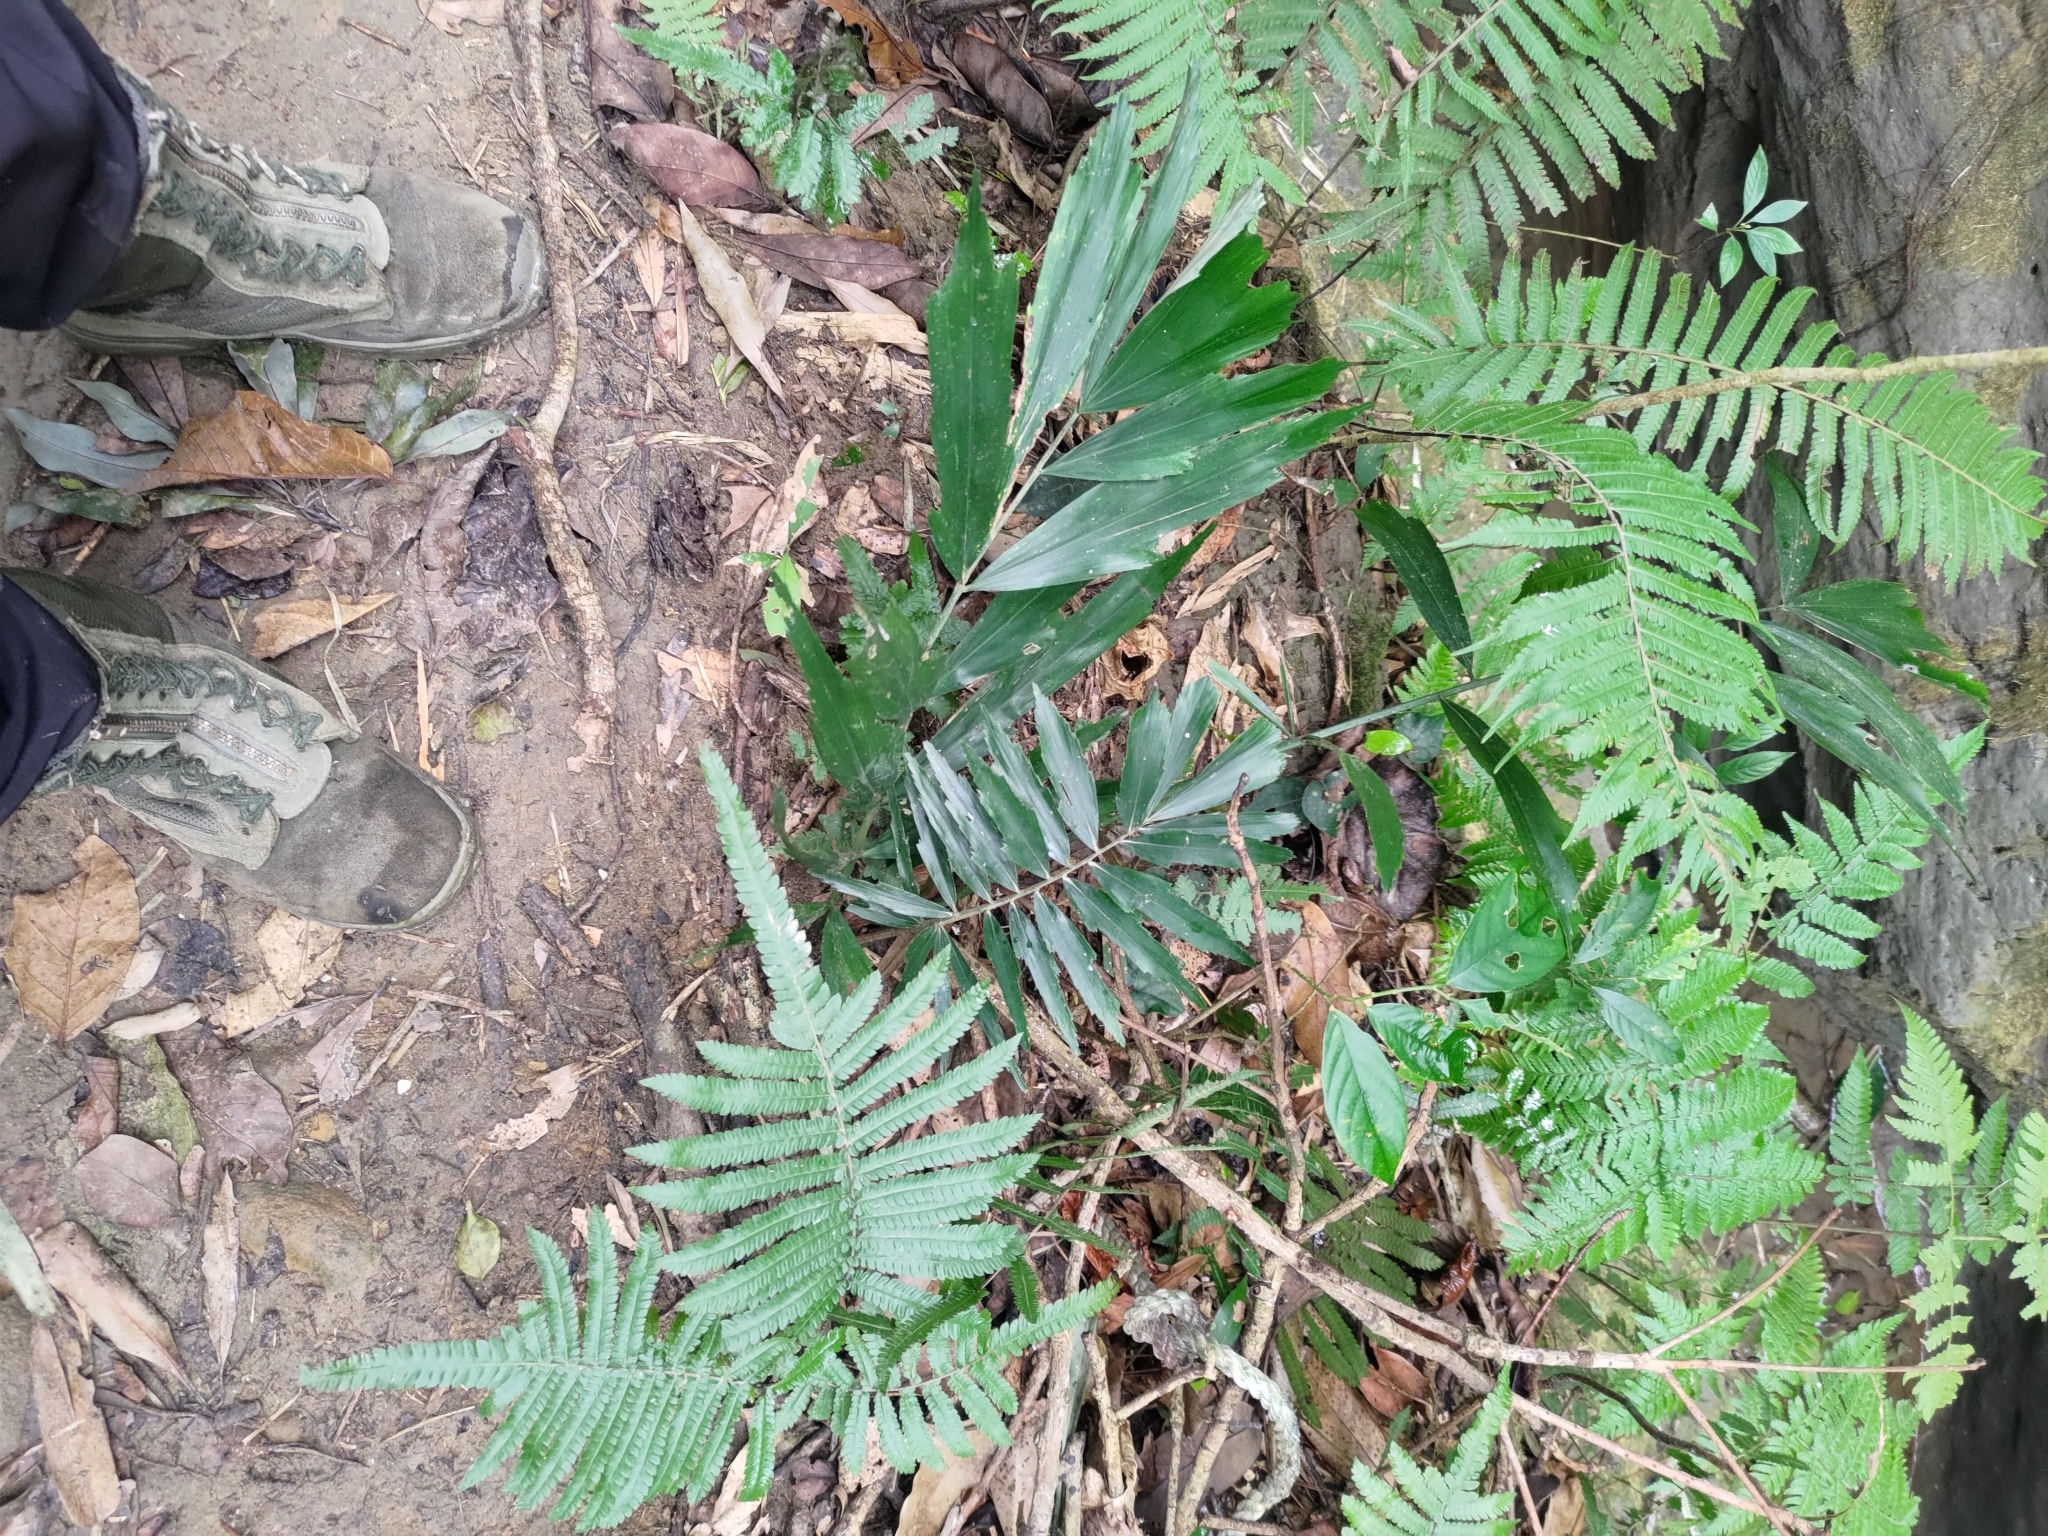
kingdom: Plantae
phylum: Tracheophyta
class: Liliopsida
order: Arecales
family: Arecaceae
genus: Arenga
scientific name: Arenga engleri
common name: Formosan sugar palm
